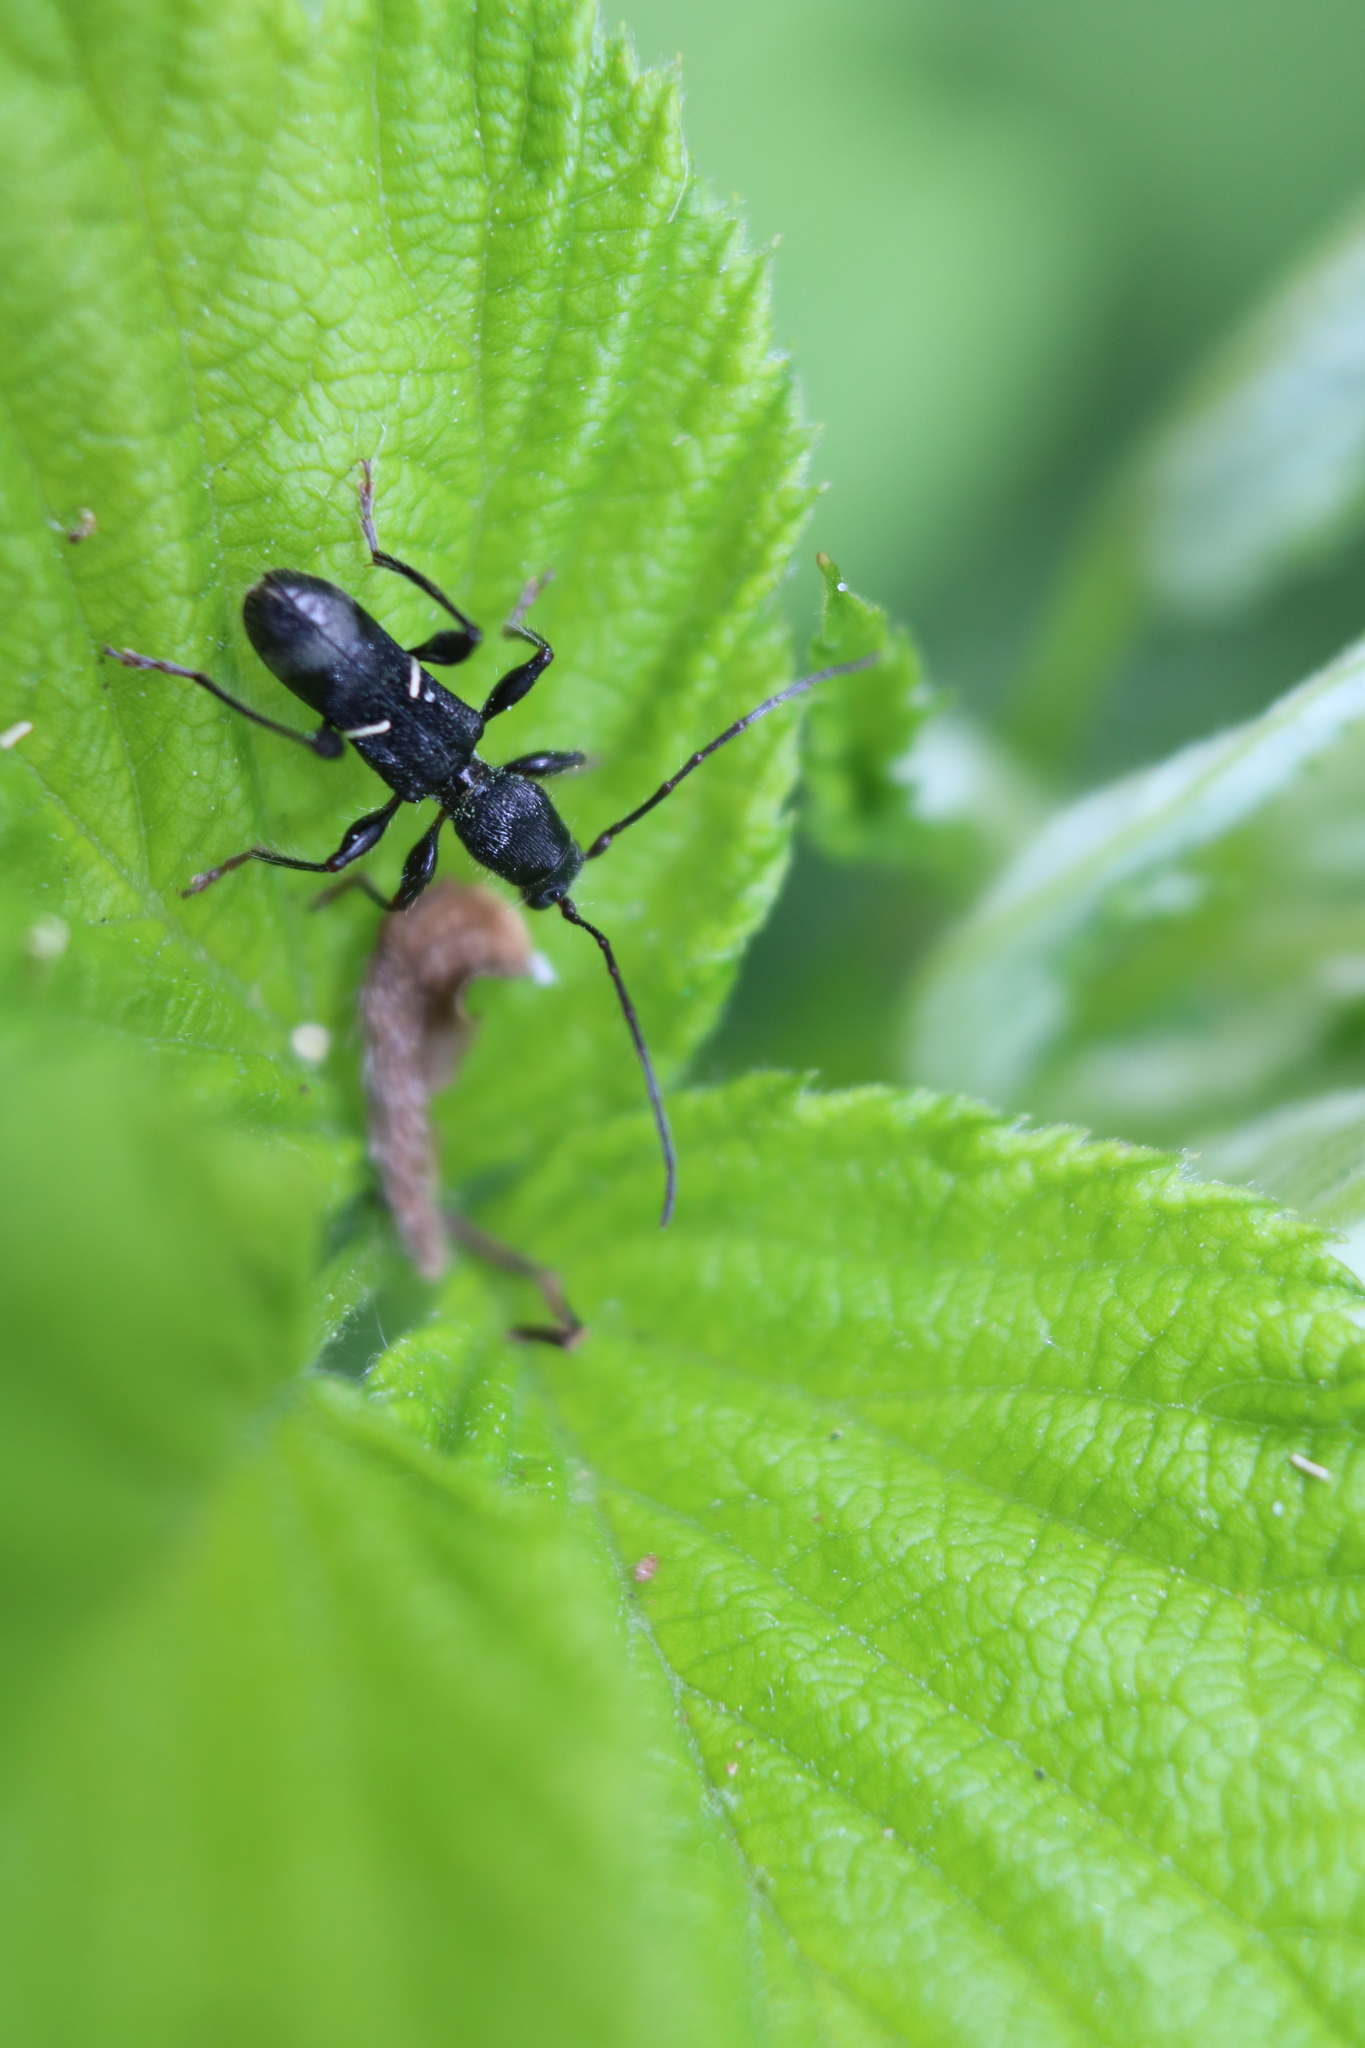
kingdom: Animalia
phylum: Arthropoda
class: Insecta
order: Coleoptera
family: Cerambycidae
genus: Euderces
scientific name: Euderces picipes
